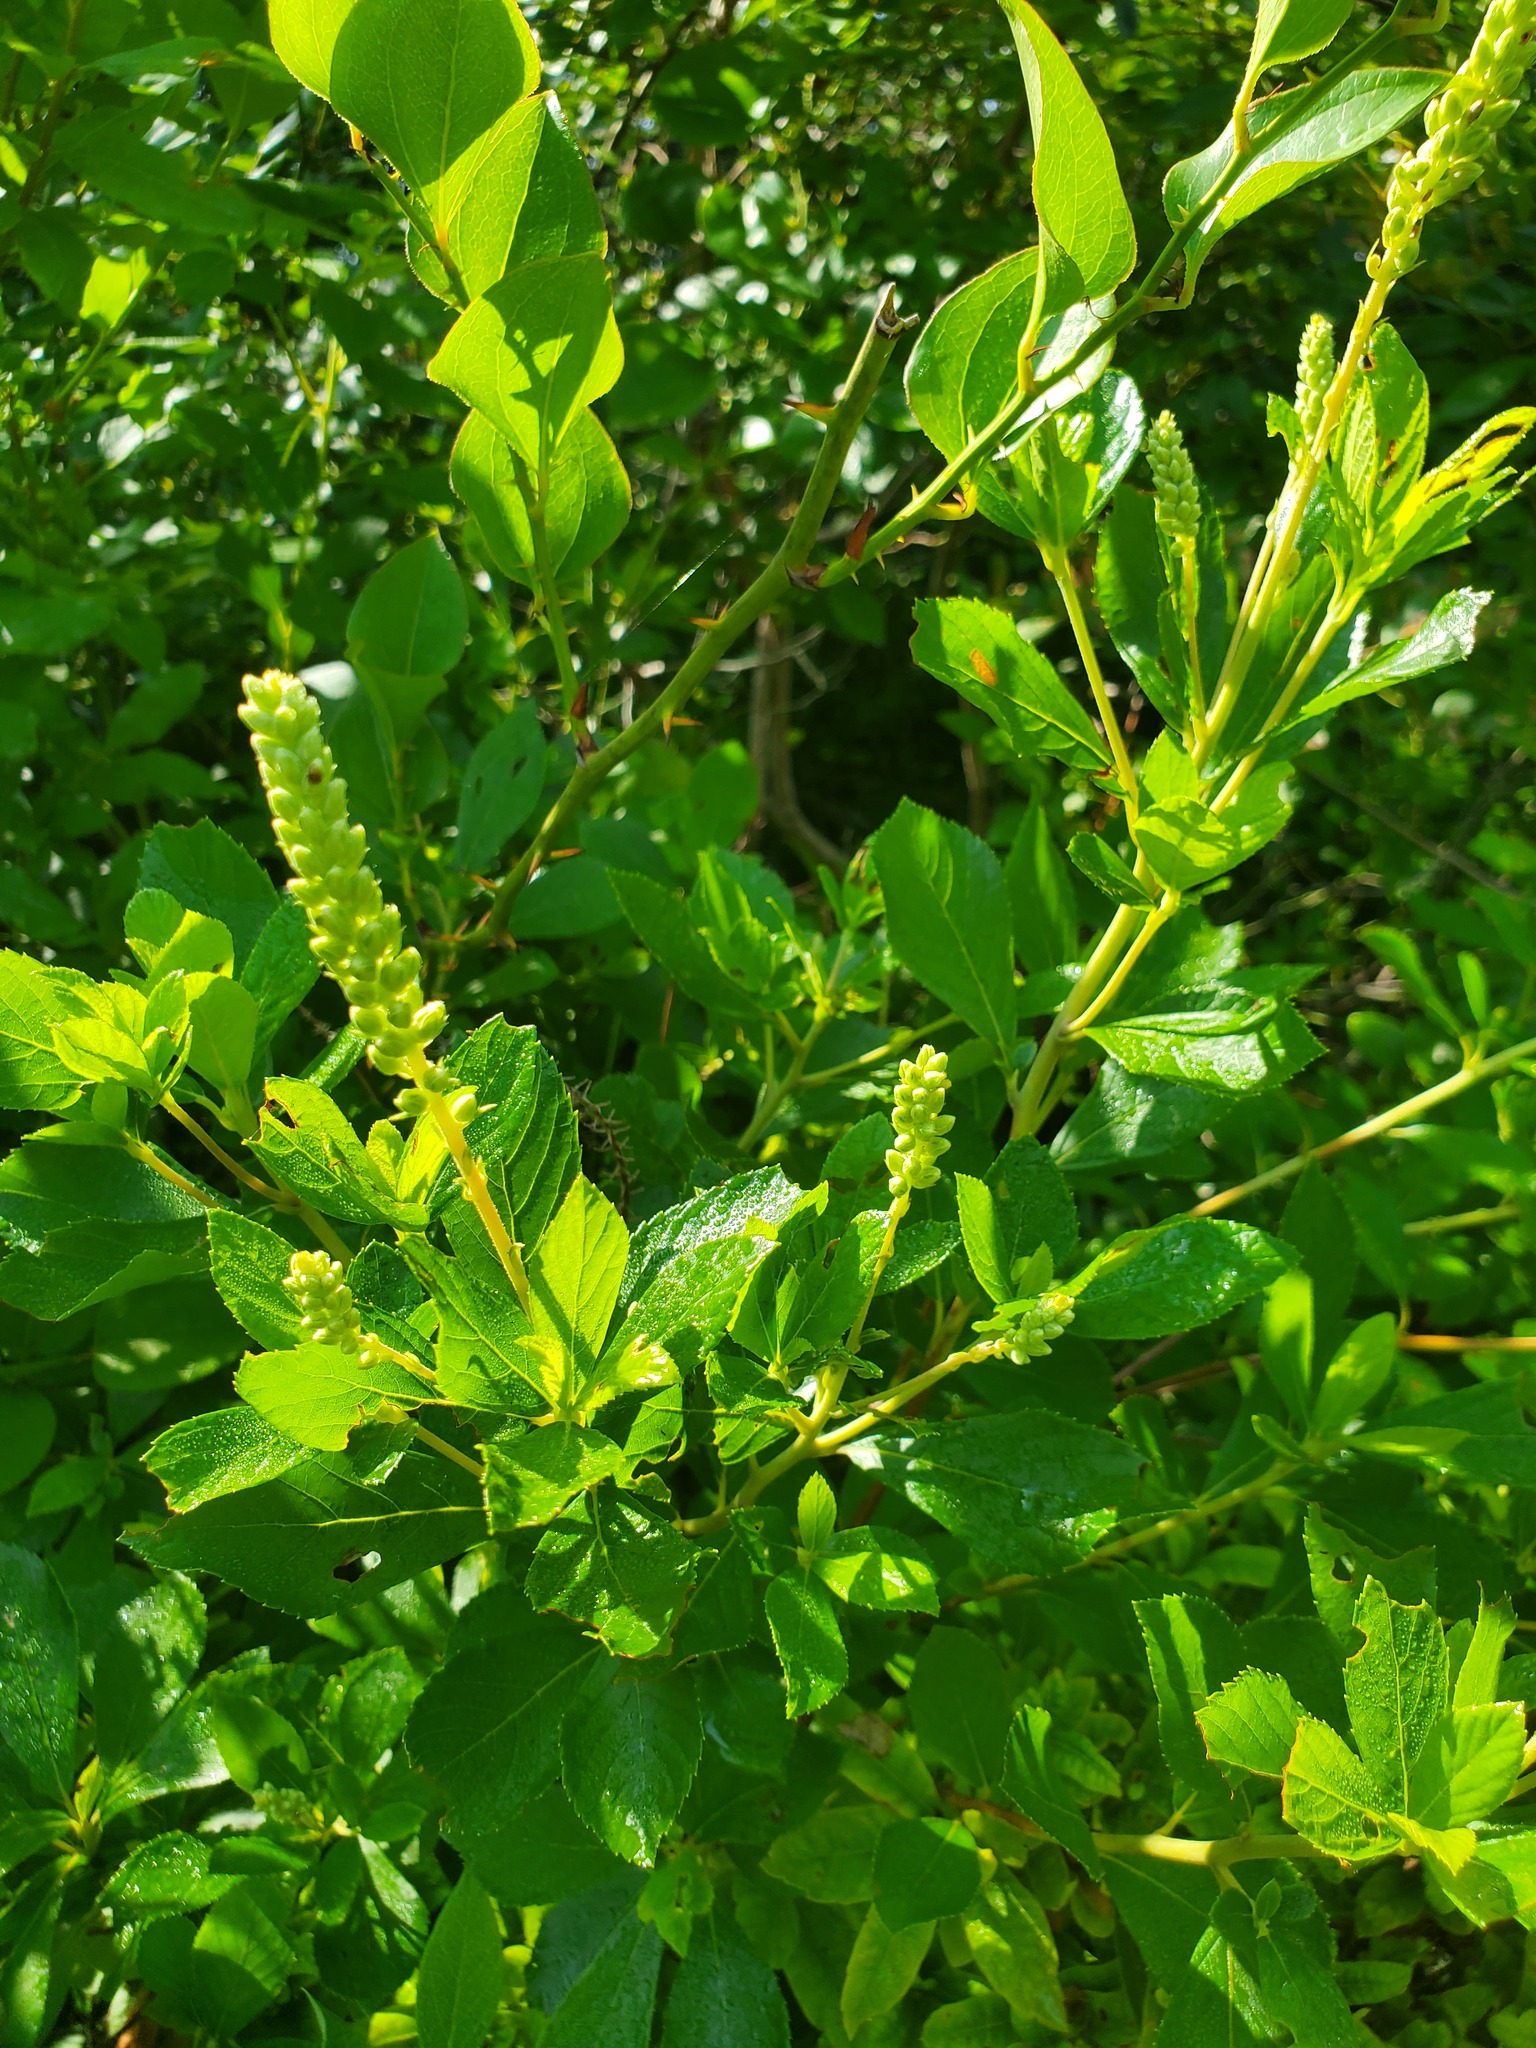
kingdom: Plantae
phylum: Tracheophyta
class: Magnoliopsida
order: Ericales
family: Clethraceae
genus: Clethra
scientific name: Clethra alnifolia
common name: Sweet pepperbush
